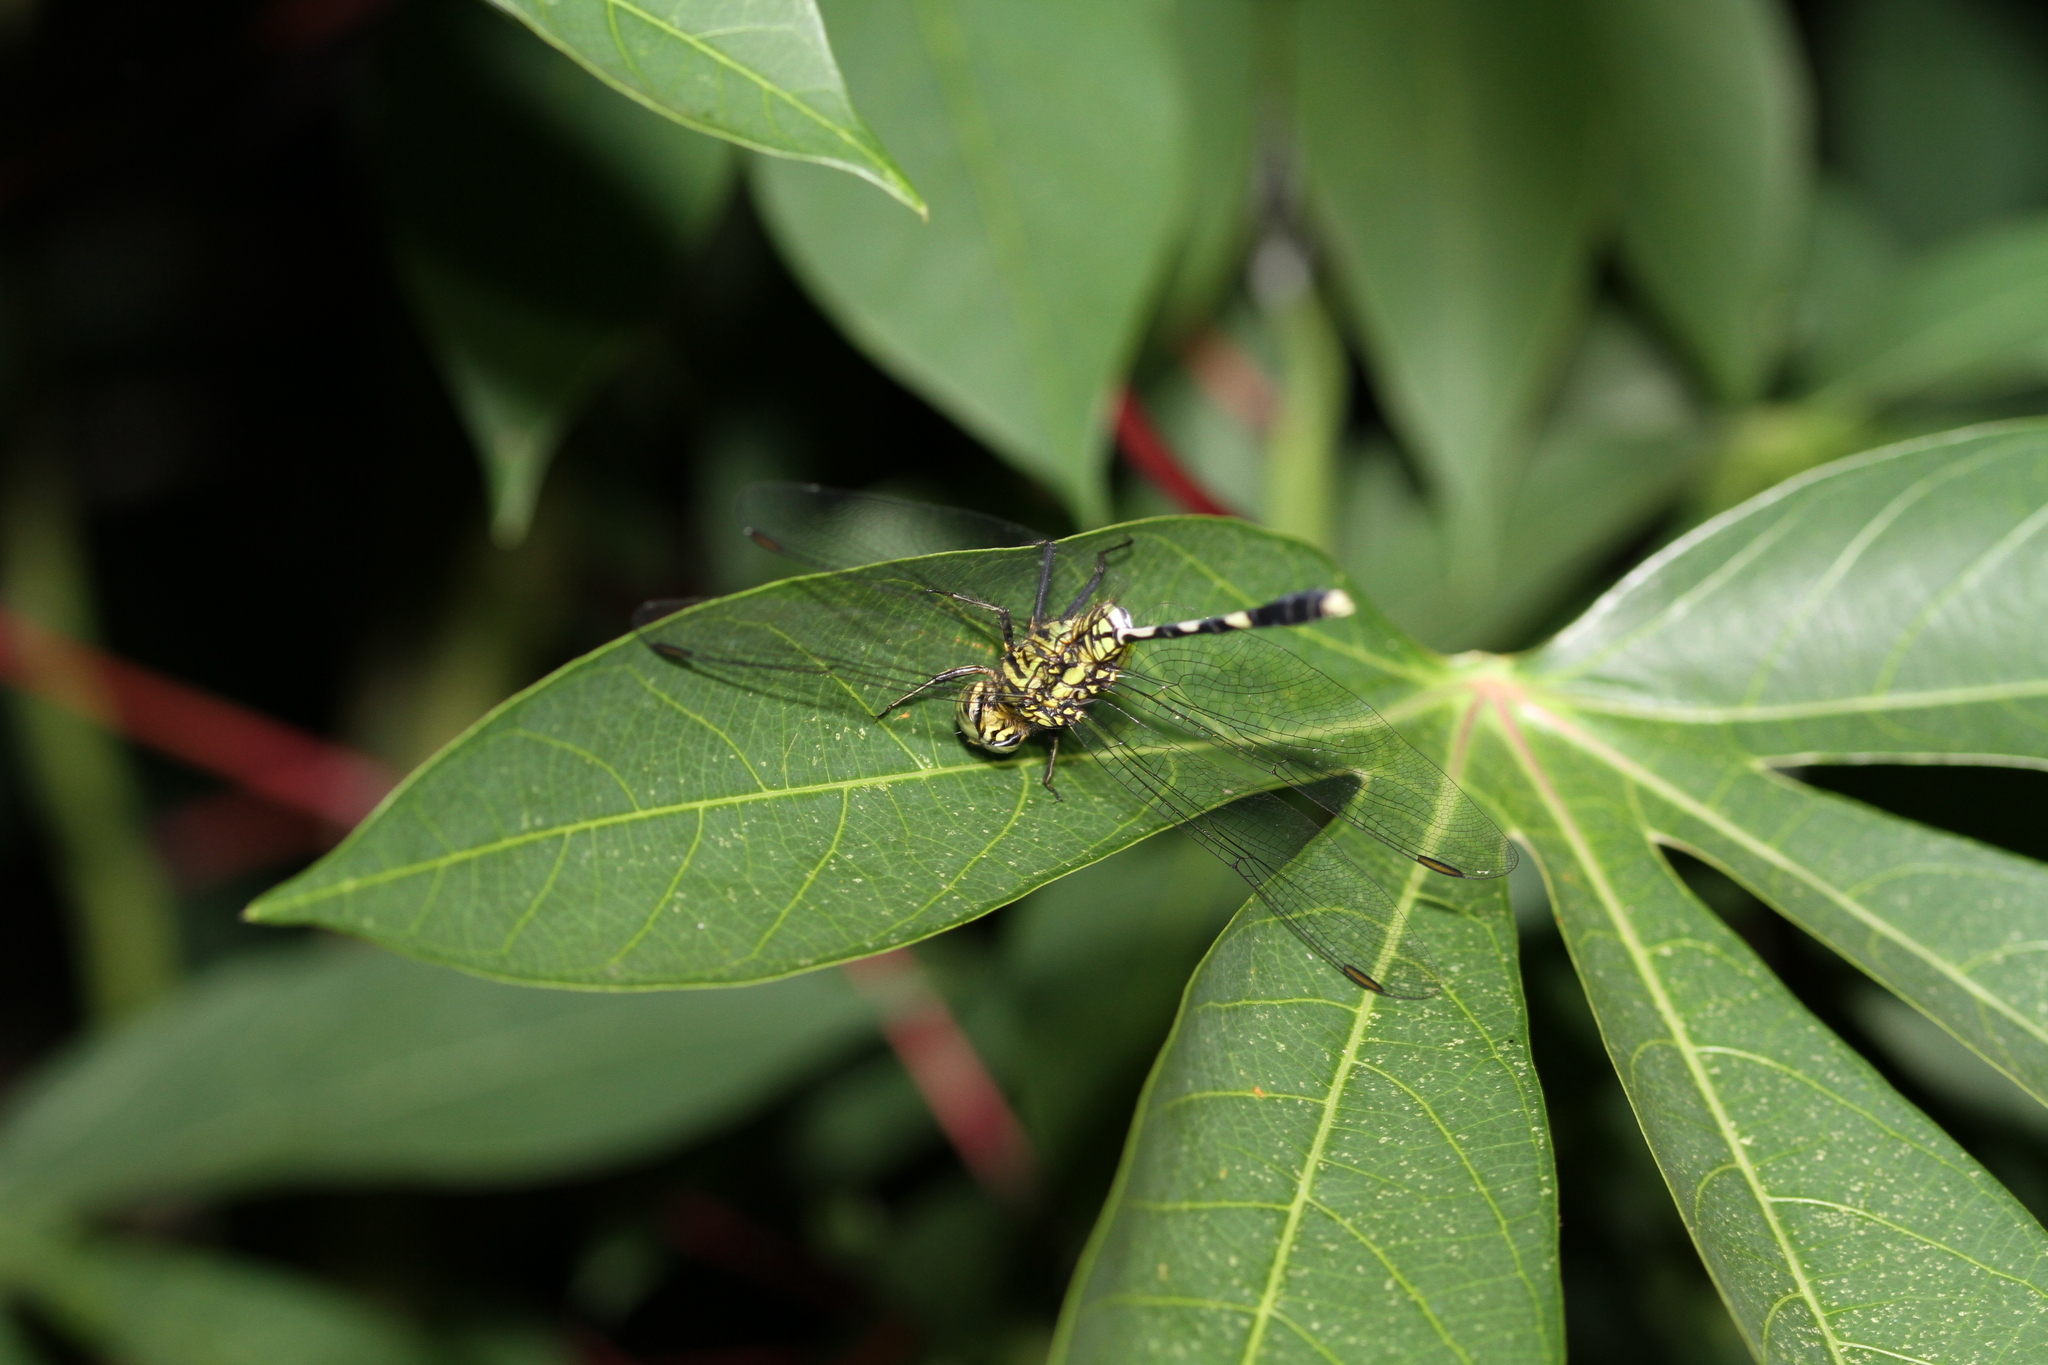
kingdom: Animalia
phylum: Arthropoda
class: Insecta
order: Odonata
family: Libellulidae
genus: Orthetrum
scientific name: Orthetrum sabina
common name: Slender skimmer
